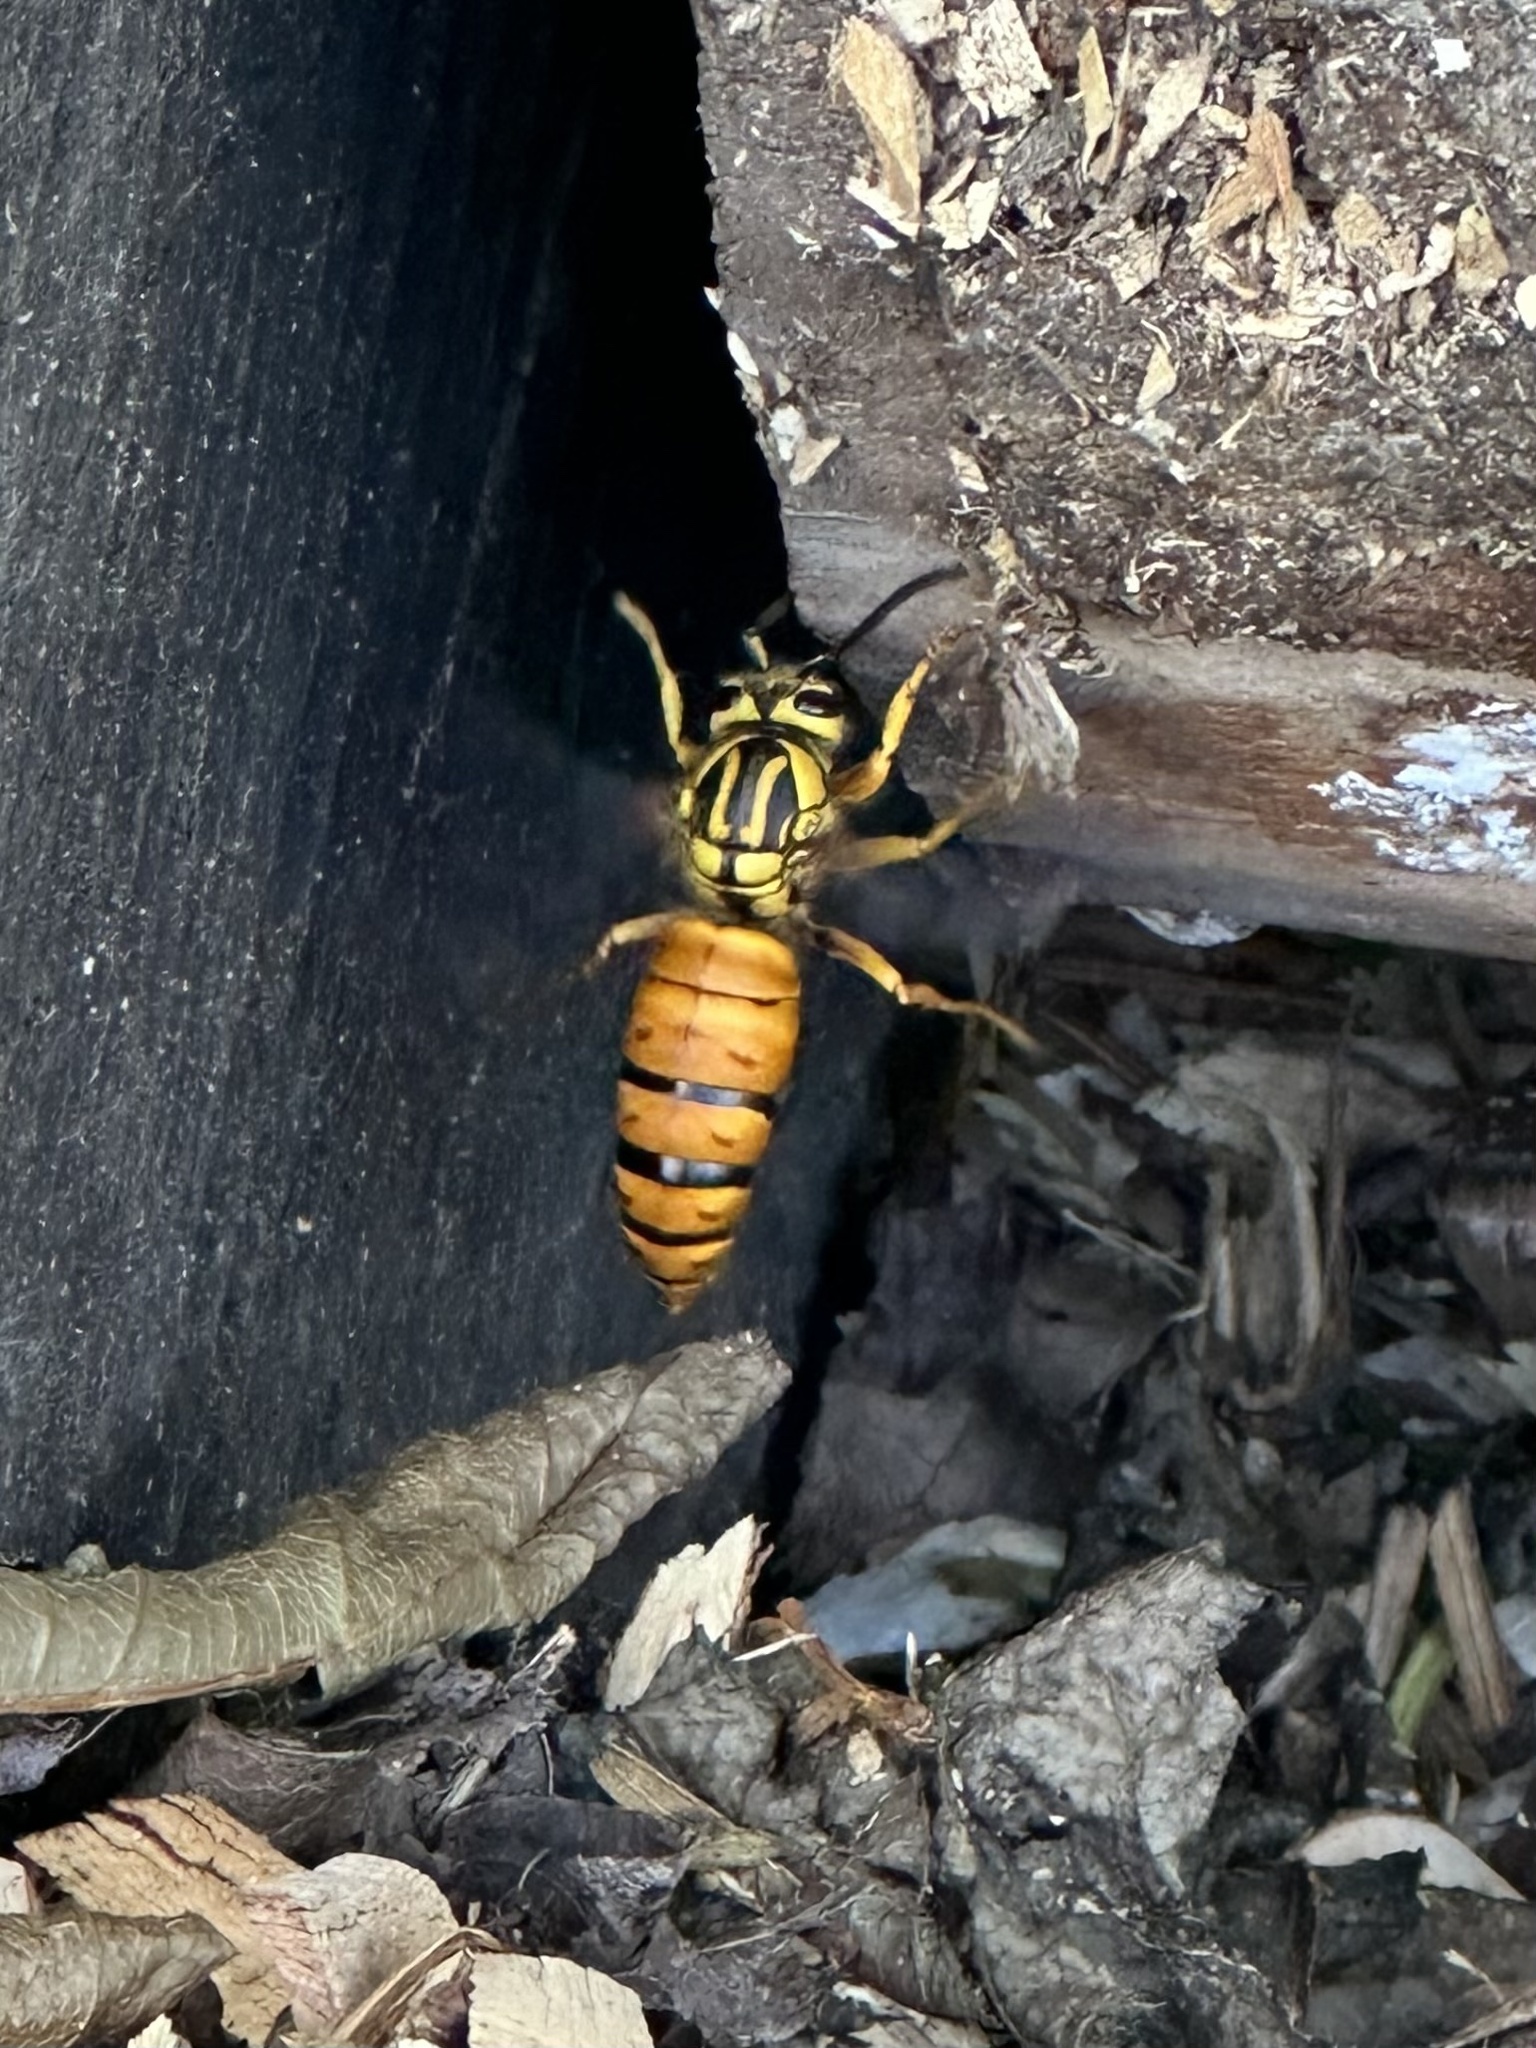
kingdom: Animalia
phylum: Arthropoda
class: Insecta
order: Hymenoptera
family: Vespidae
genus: Vespula
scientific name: Vespula squamosa
